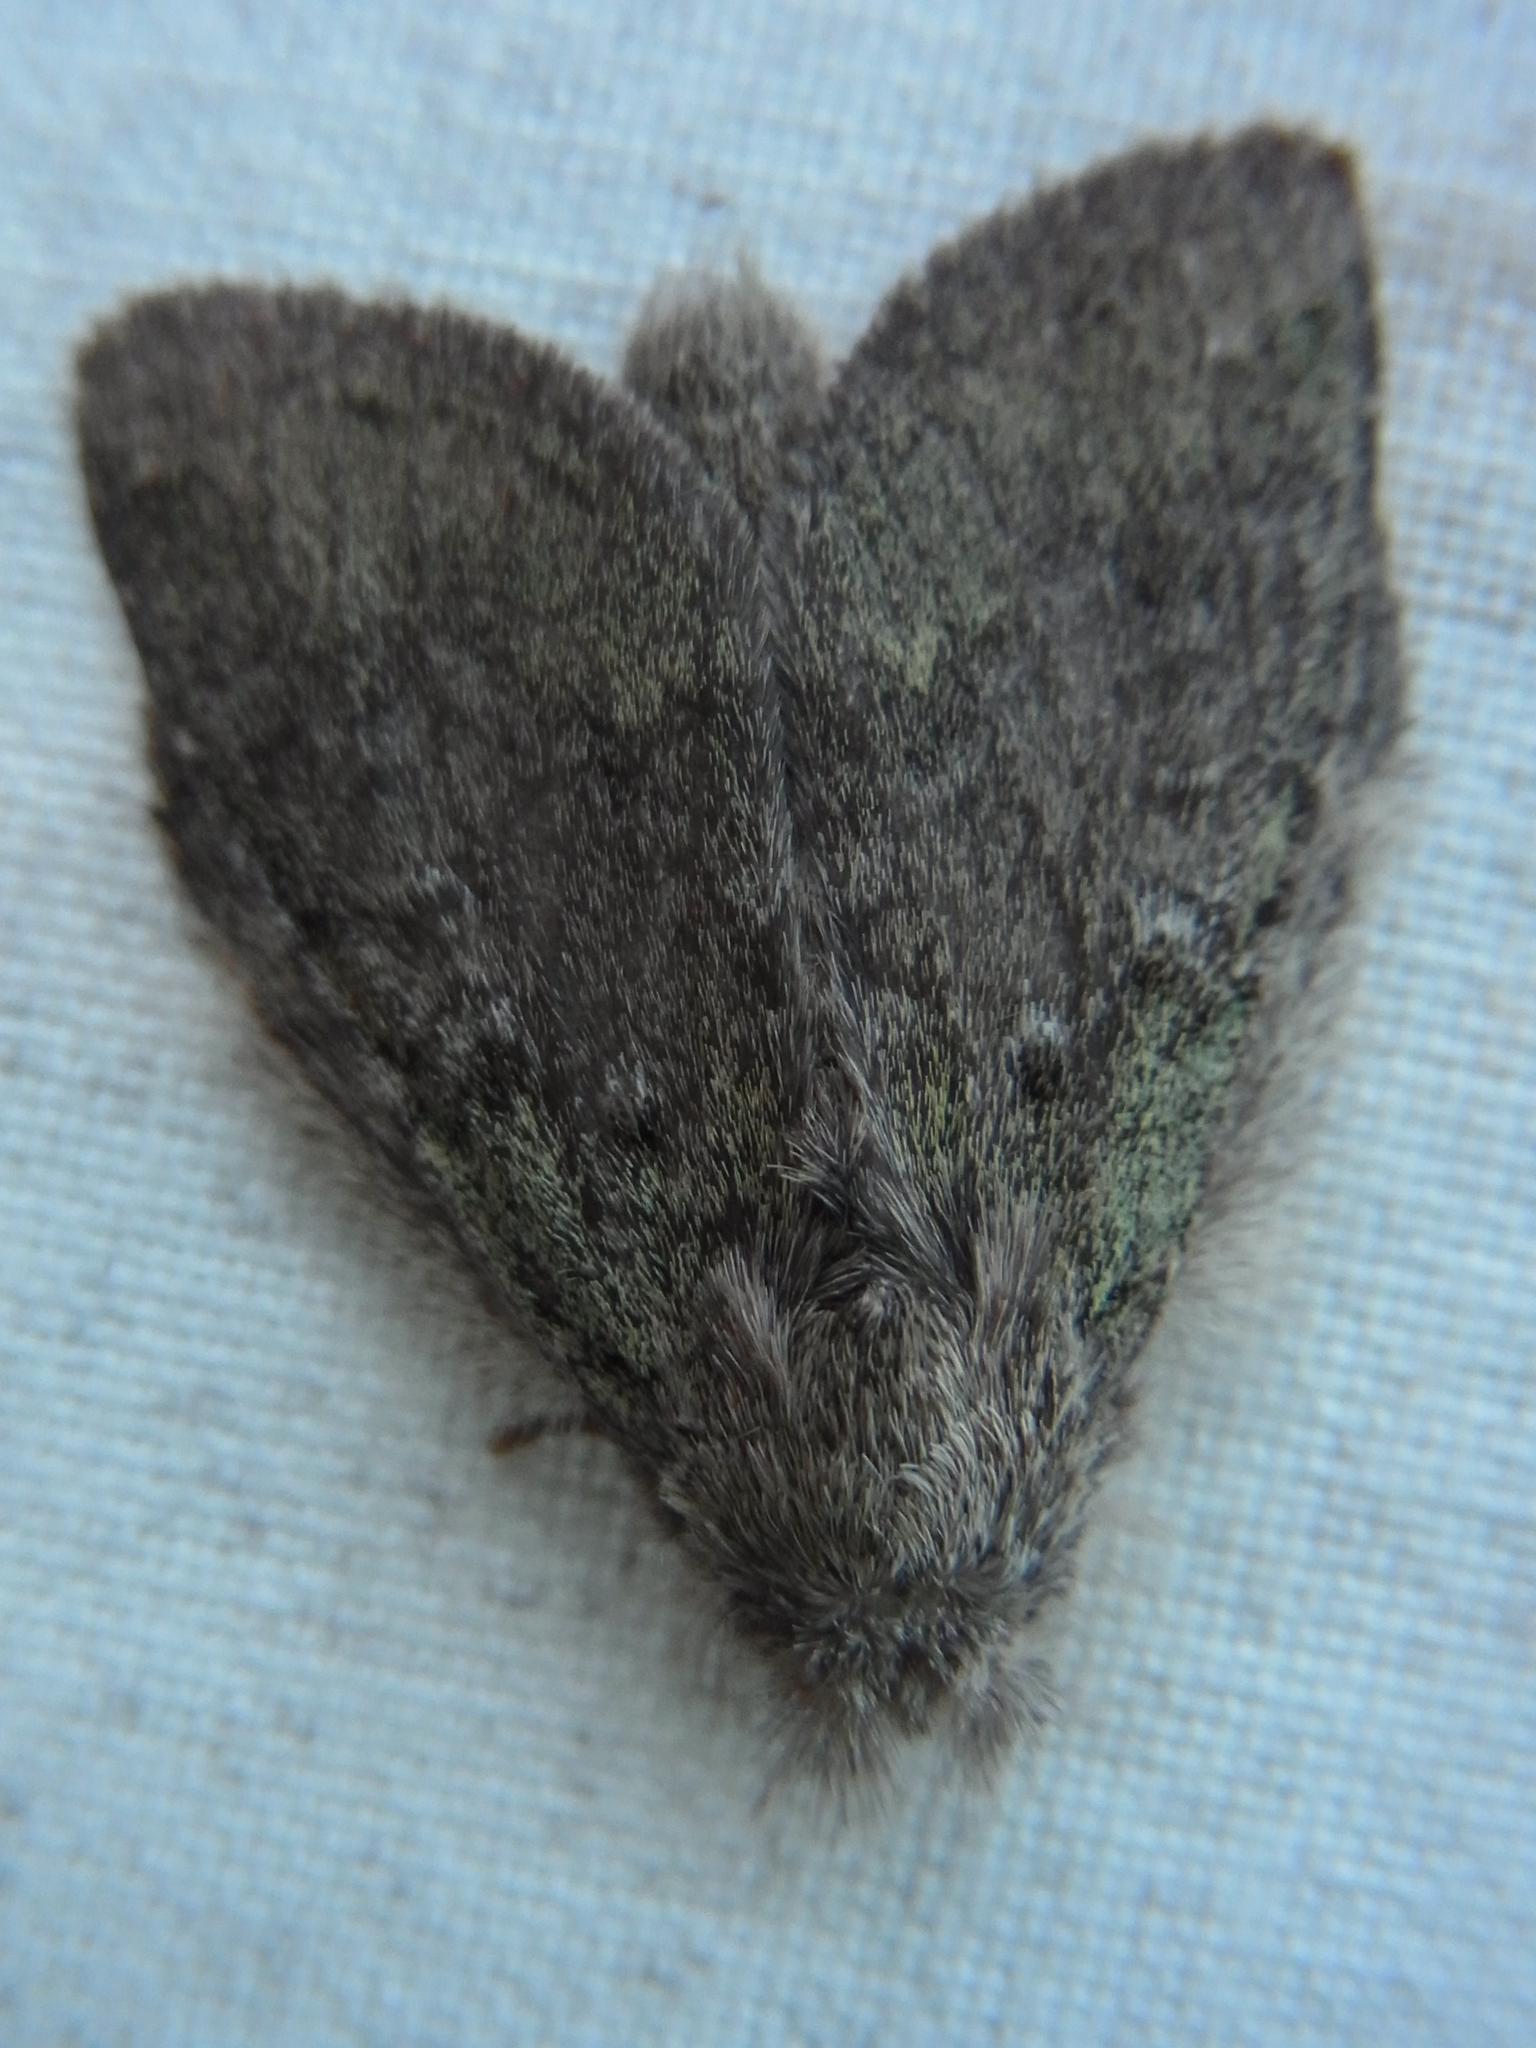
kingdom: Animalia
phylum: Arthropoda
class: Insecta
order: Lepidoptera
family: Notodontidae
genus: Syntypistis
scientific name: Syntypistis cyanea
